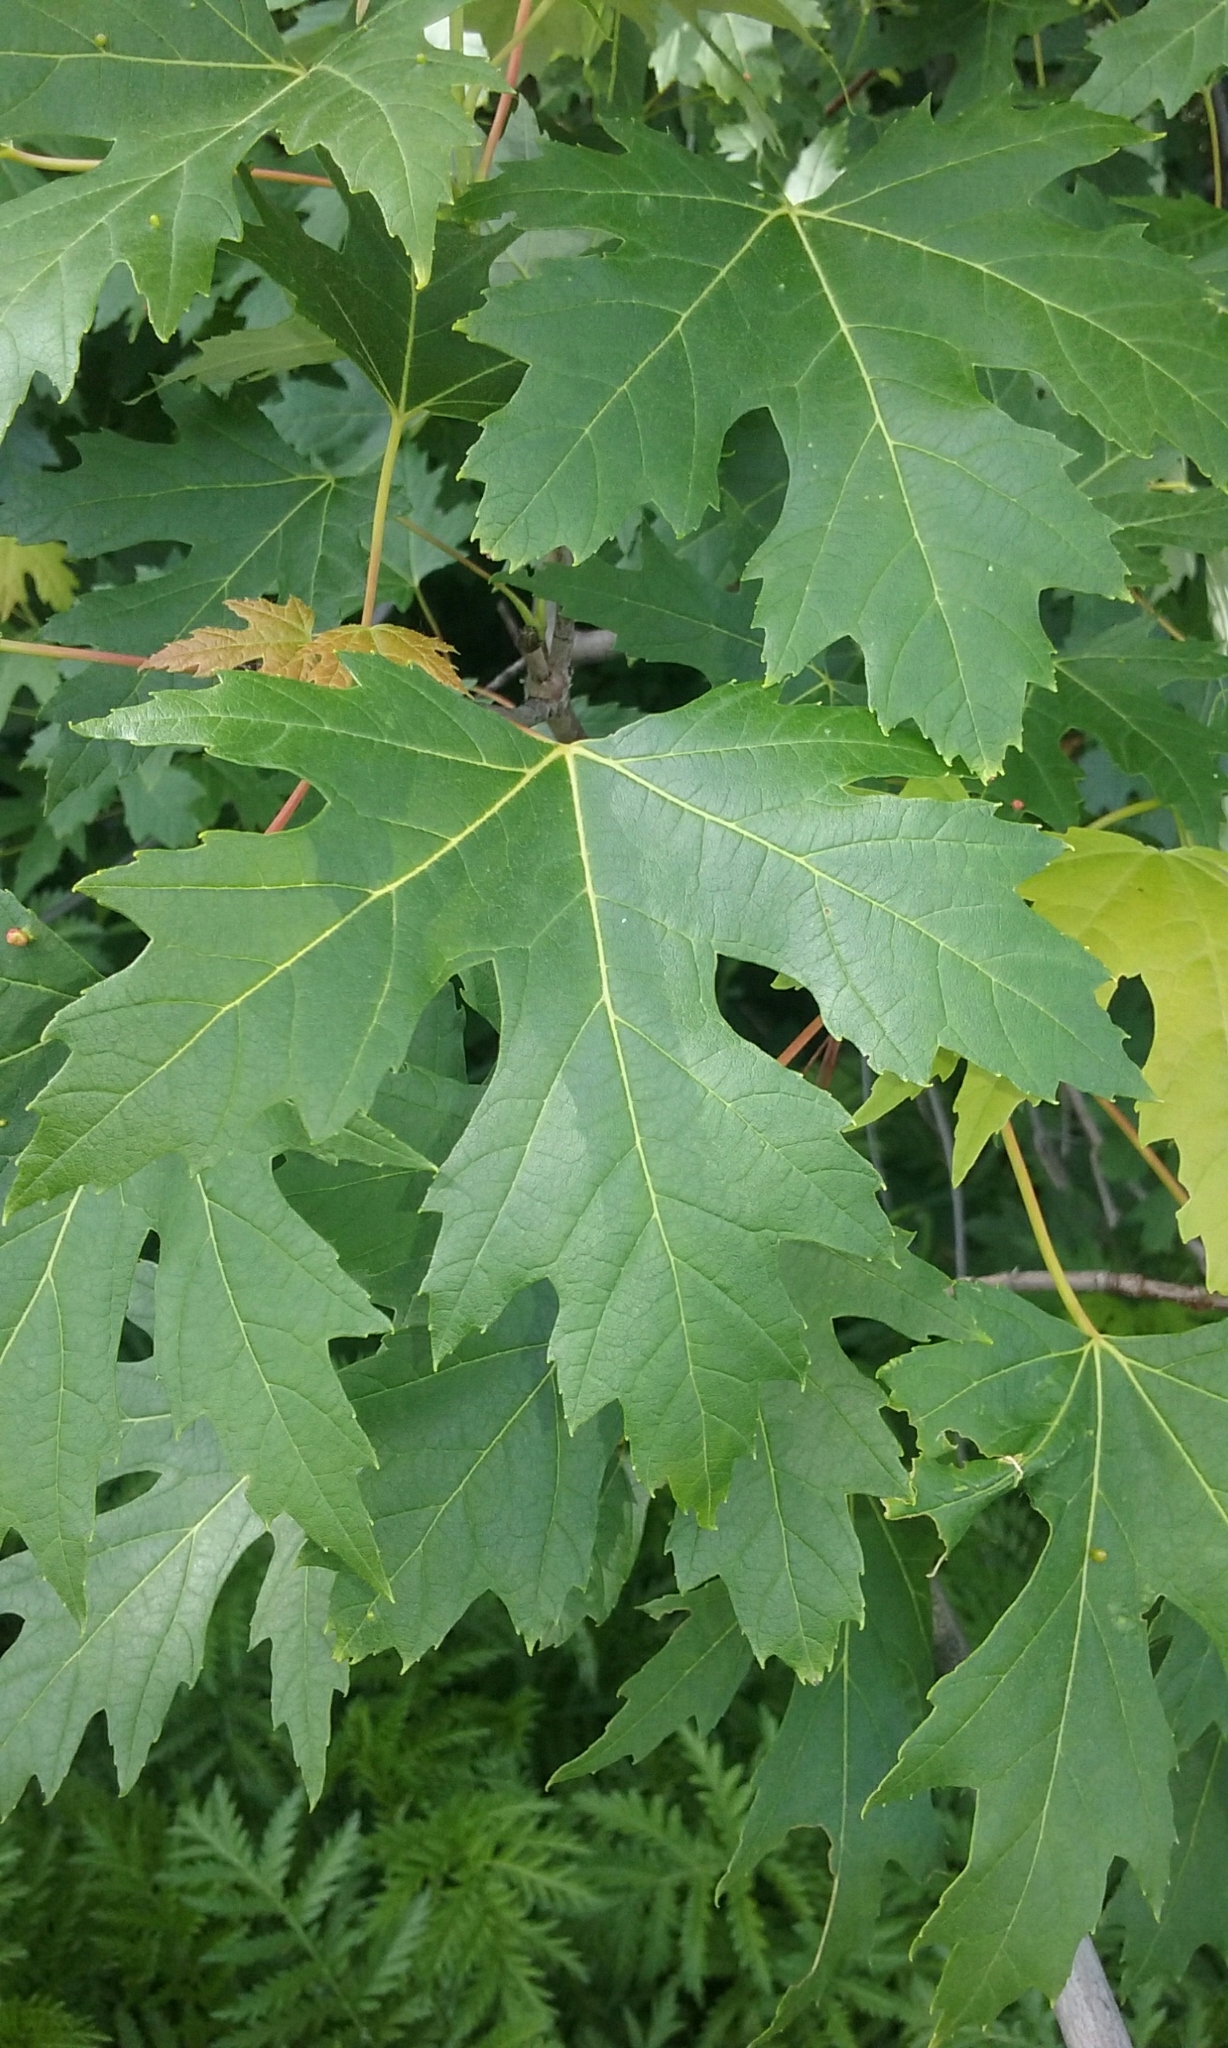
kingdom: Plantae
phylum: Tracheophyta
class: Magnoliopsida
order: Sapindales
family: Sapindaceae
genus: Acer
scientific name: Acer saccharinum
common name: Silver maple
